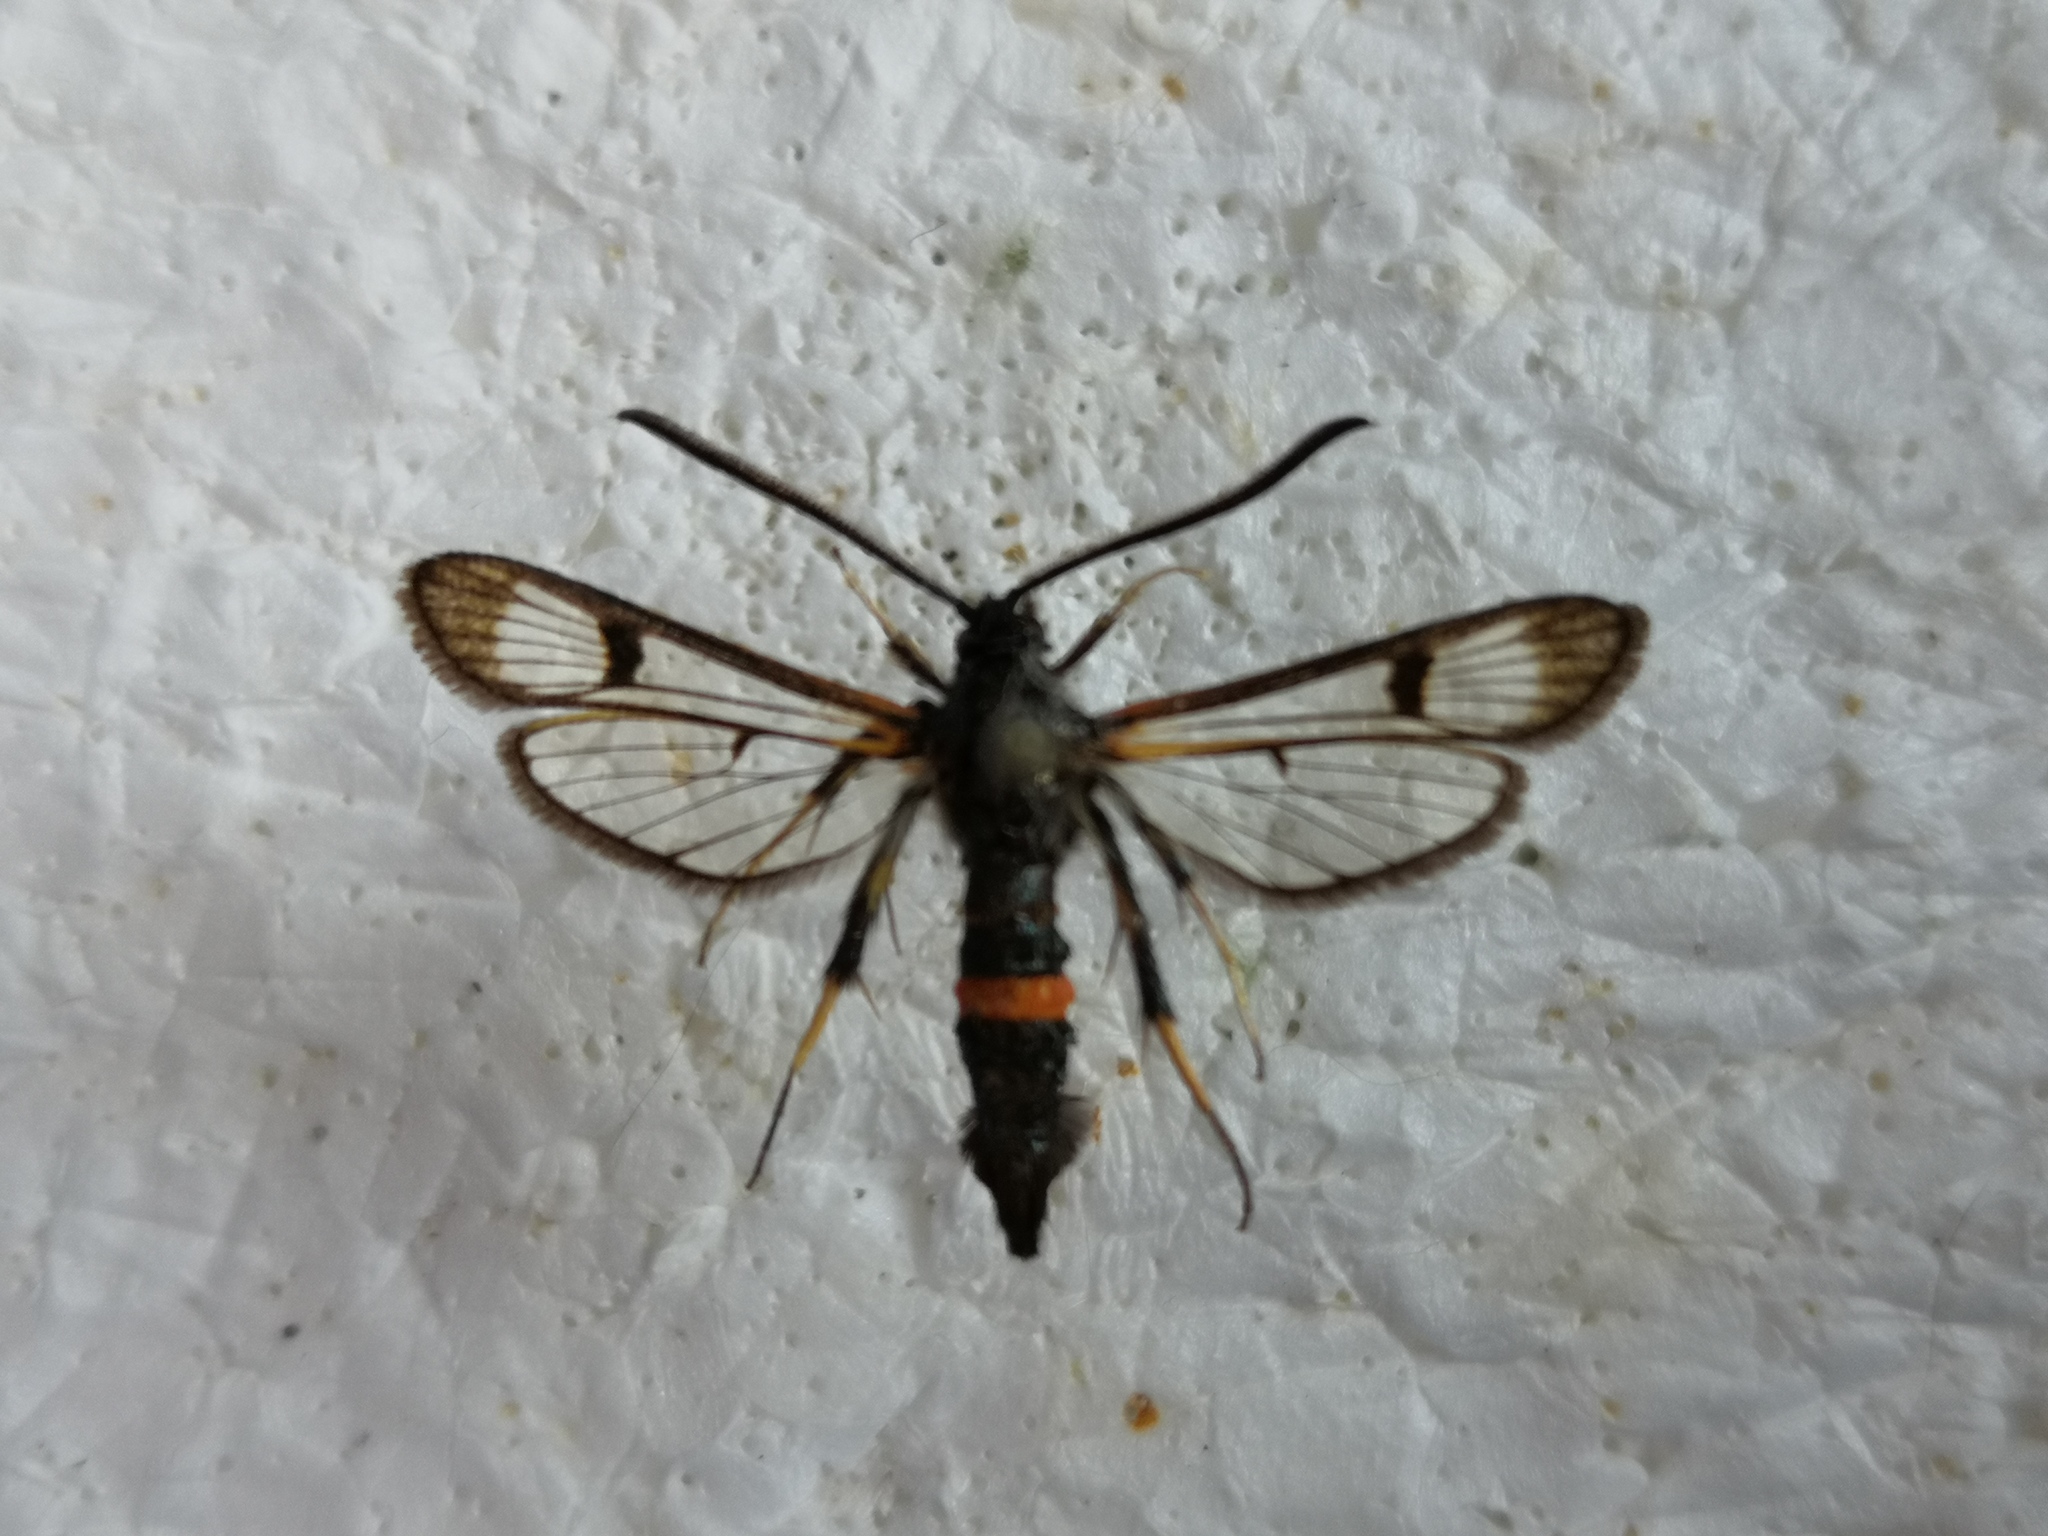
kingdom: Animalia
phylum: Arthropoda
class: Insecta
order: Lepidoptera
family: Sesiidae
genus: Synanthedon
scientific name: Synanthedon culiciformis
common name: Large red-belted clearwing
